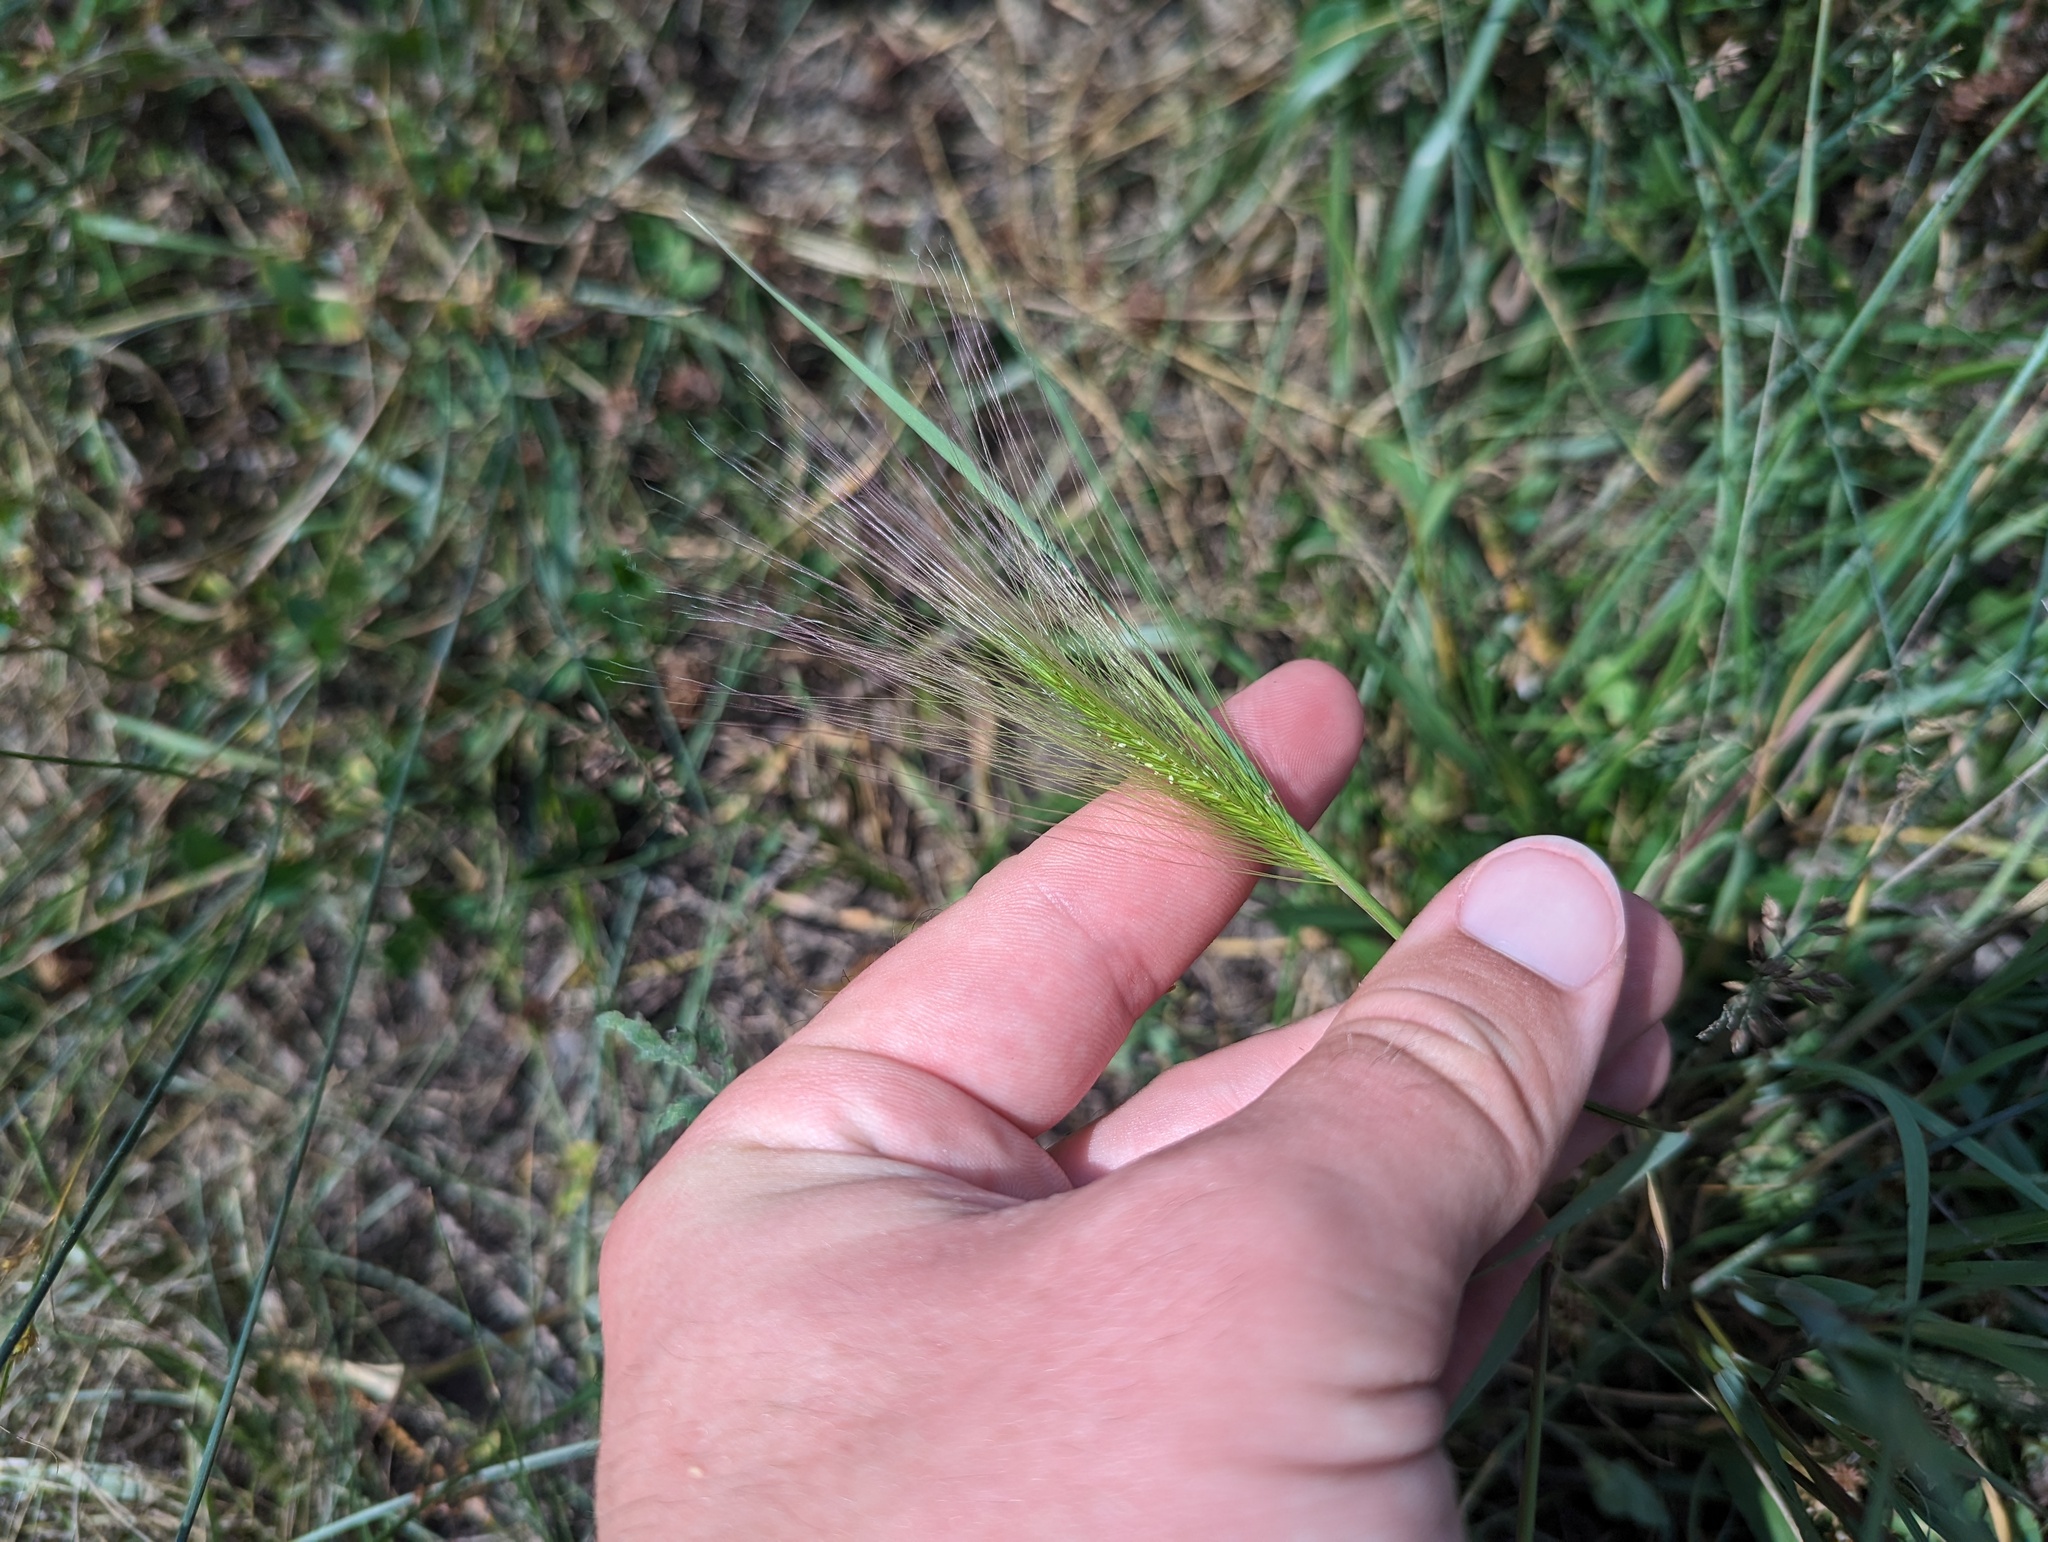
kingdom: Plantae
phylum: Tracheophyta
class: Liliopsida
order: Poales
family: Poaceae
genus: Hordeum
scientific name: Hordeum jubatum
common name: Foxtail barley
